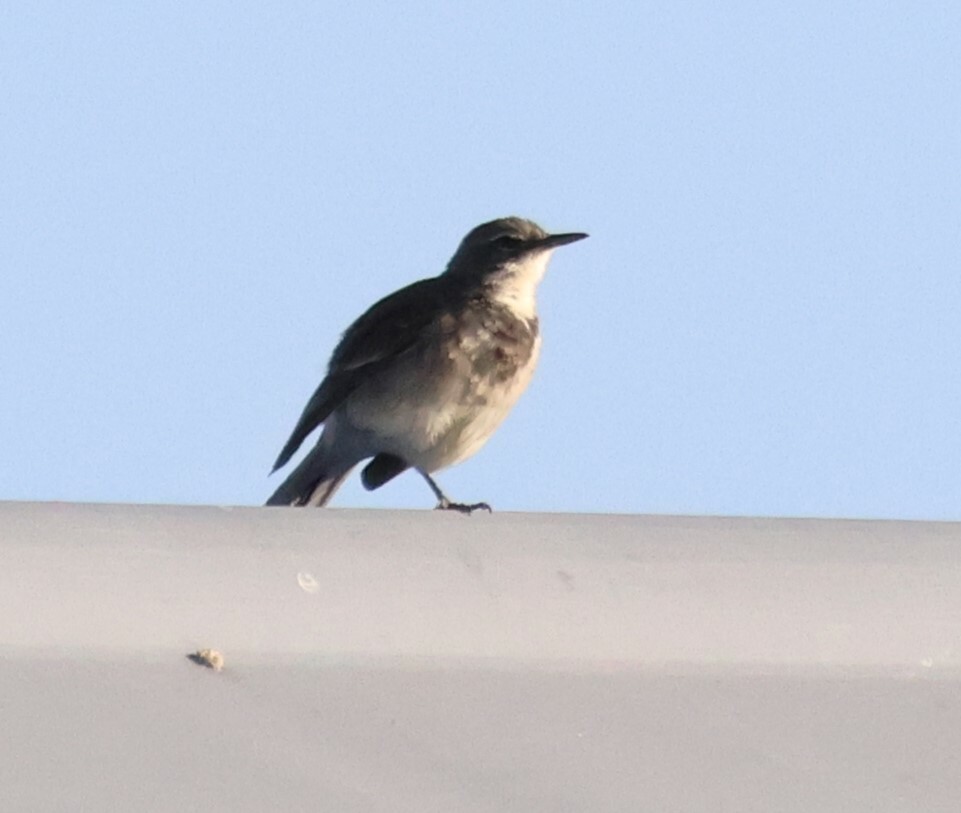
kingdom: Animalia
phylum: Chordata
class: Aves
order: Passeriformes
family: Motacillidae
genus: Motacilla
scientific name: Motacilla capensis
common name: Cape wagtail
